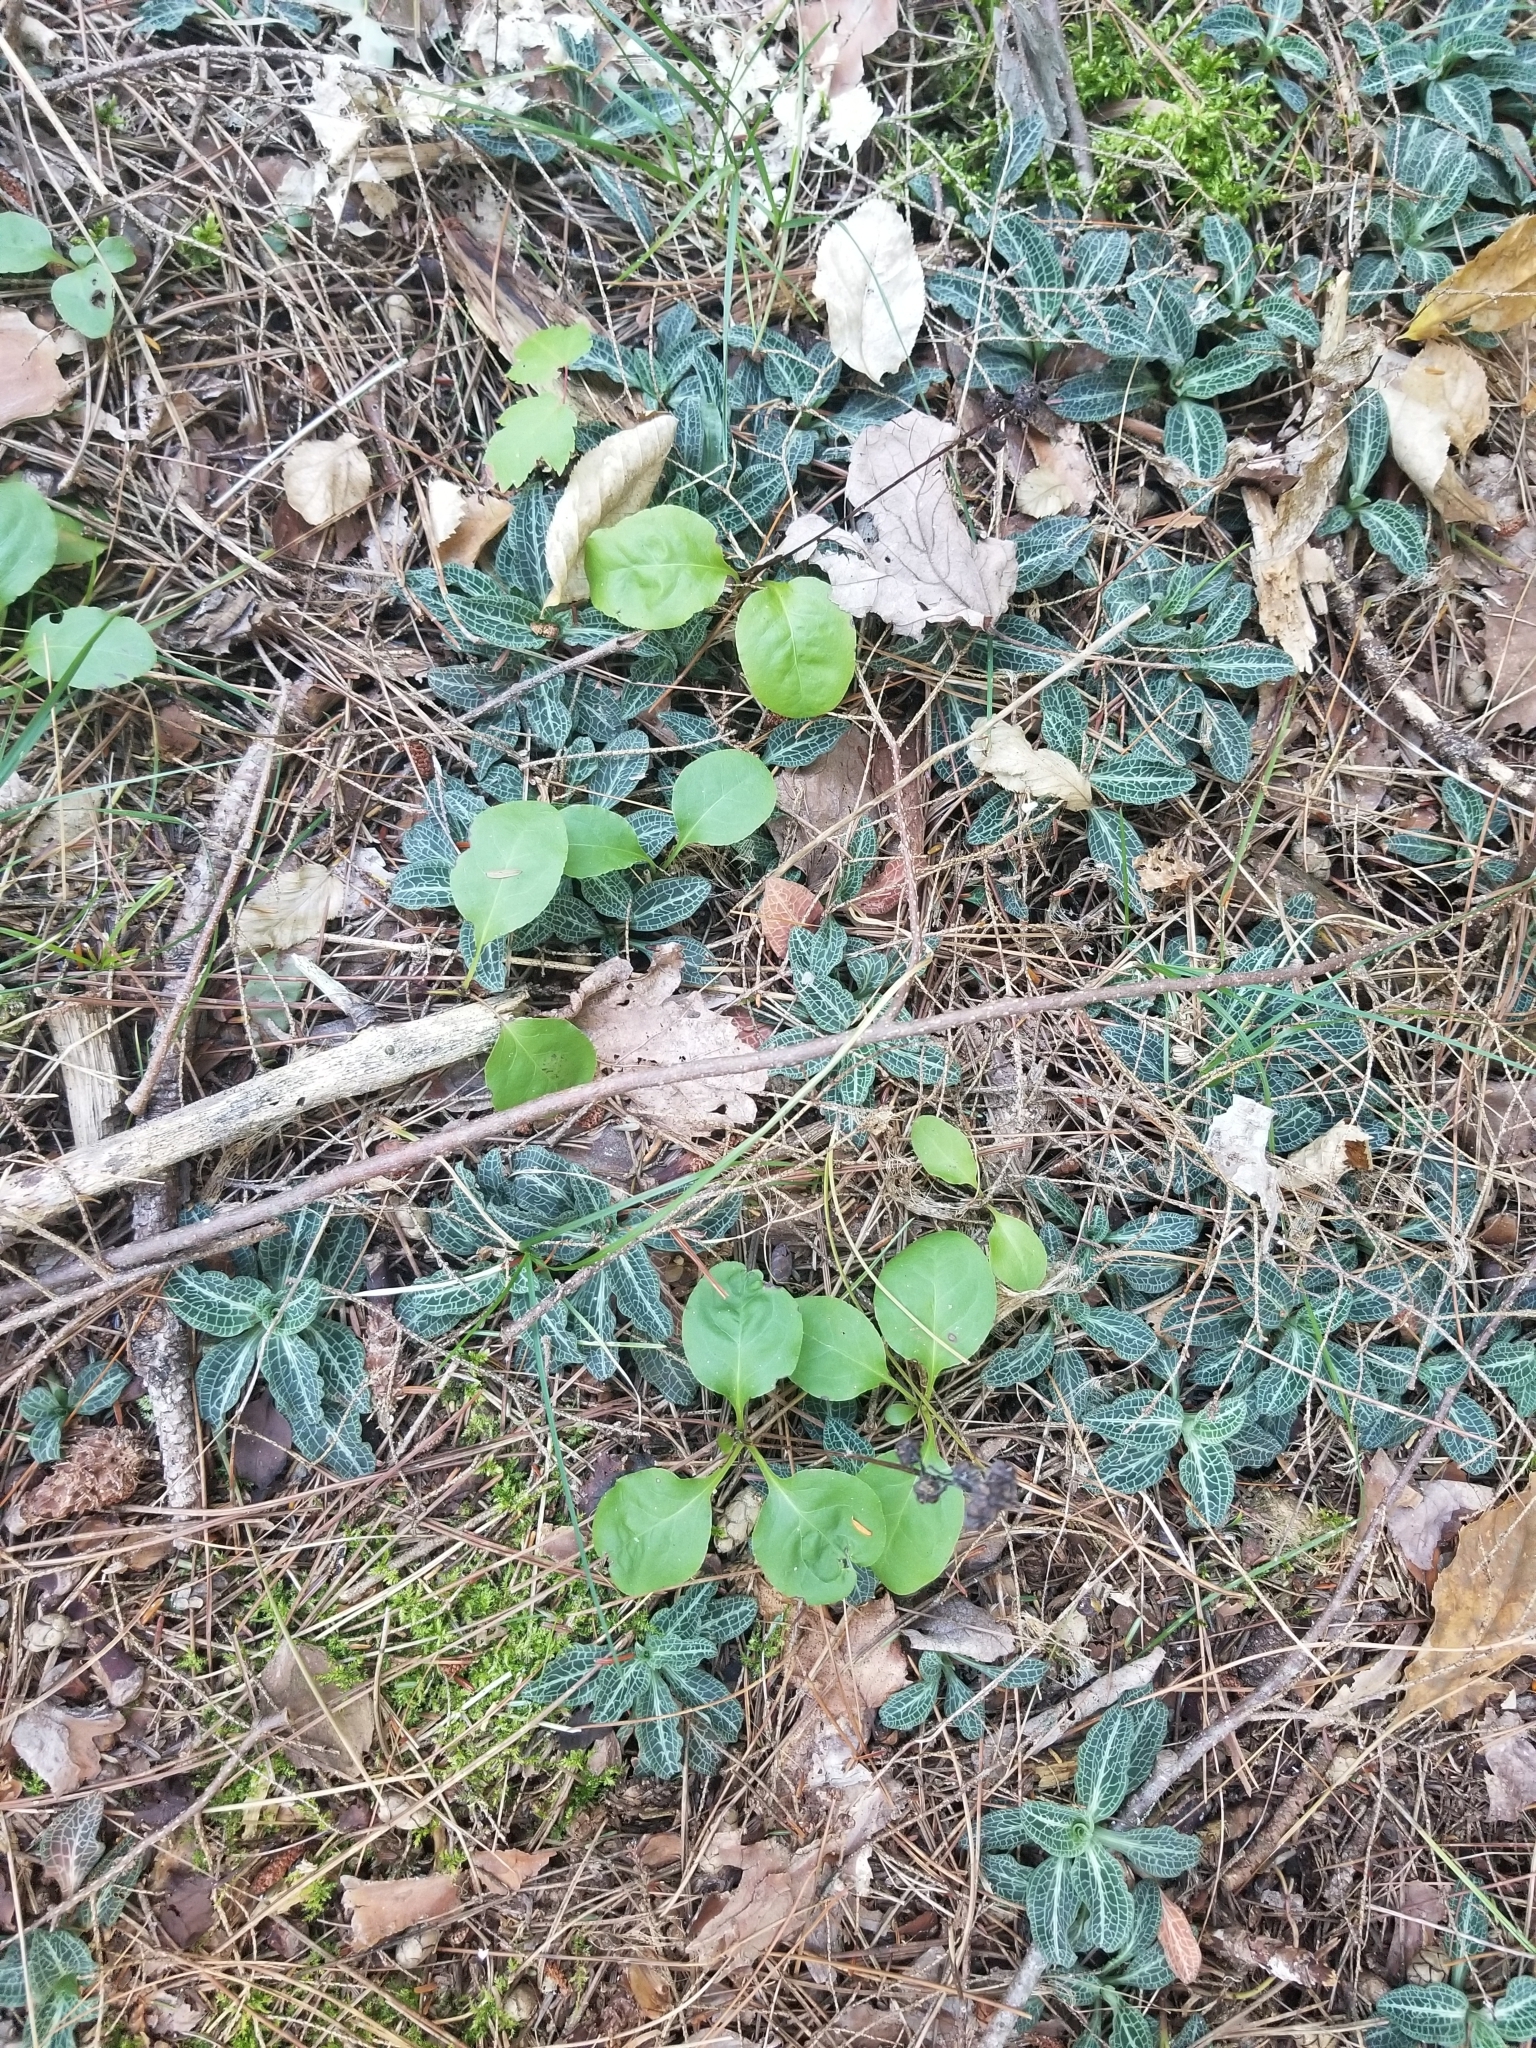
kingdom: Plantae
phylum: Tracheophyta
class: Liliopsida
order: Asparagales
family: Orchidaceae
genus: Goodyera
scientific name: Goodyera pubescens
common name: Downy rattlesnake-plantain
